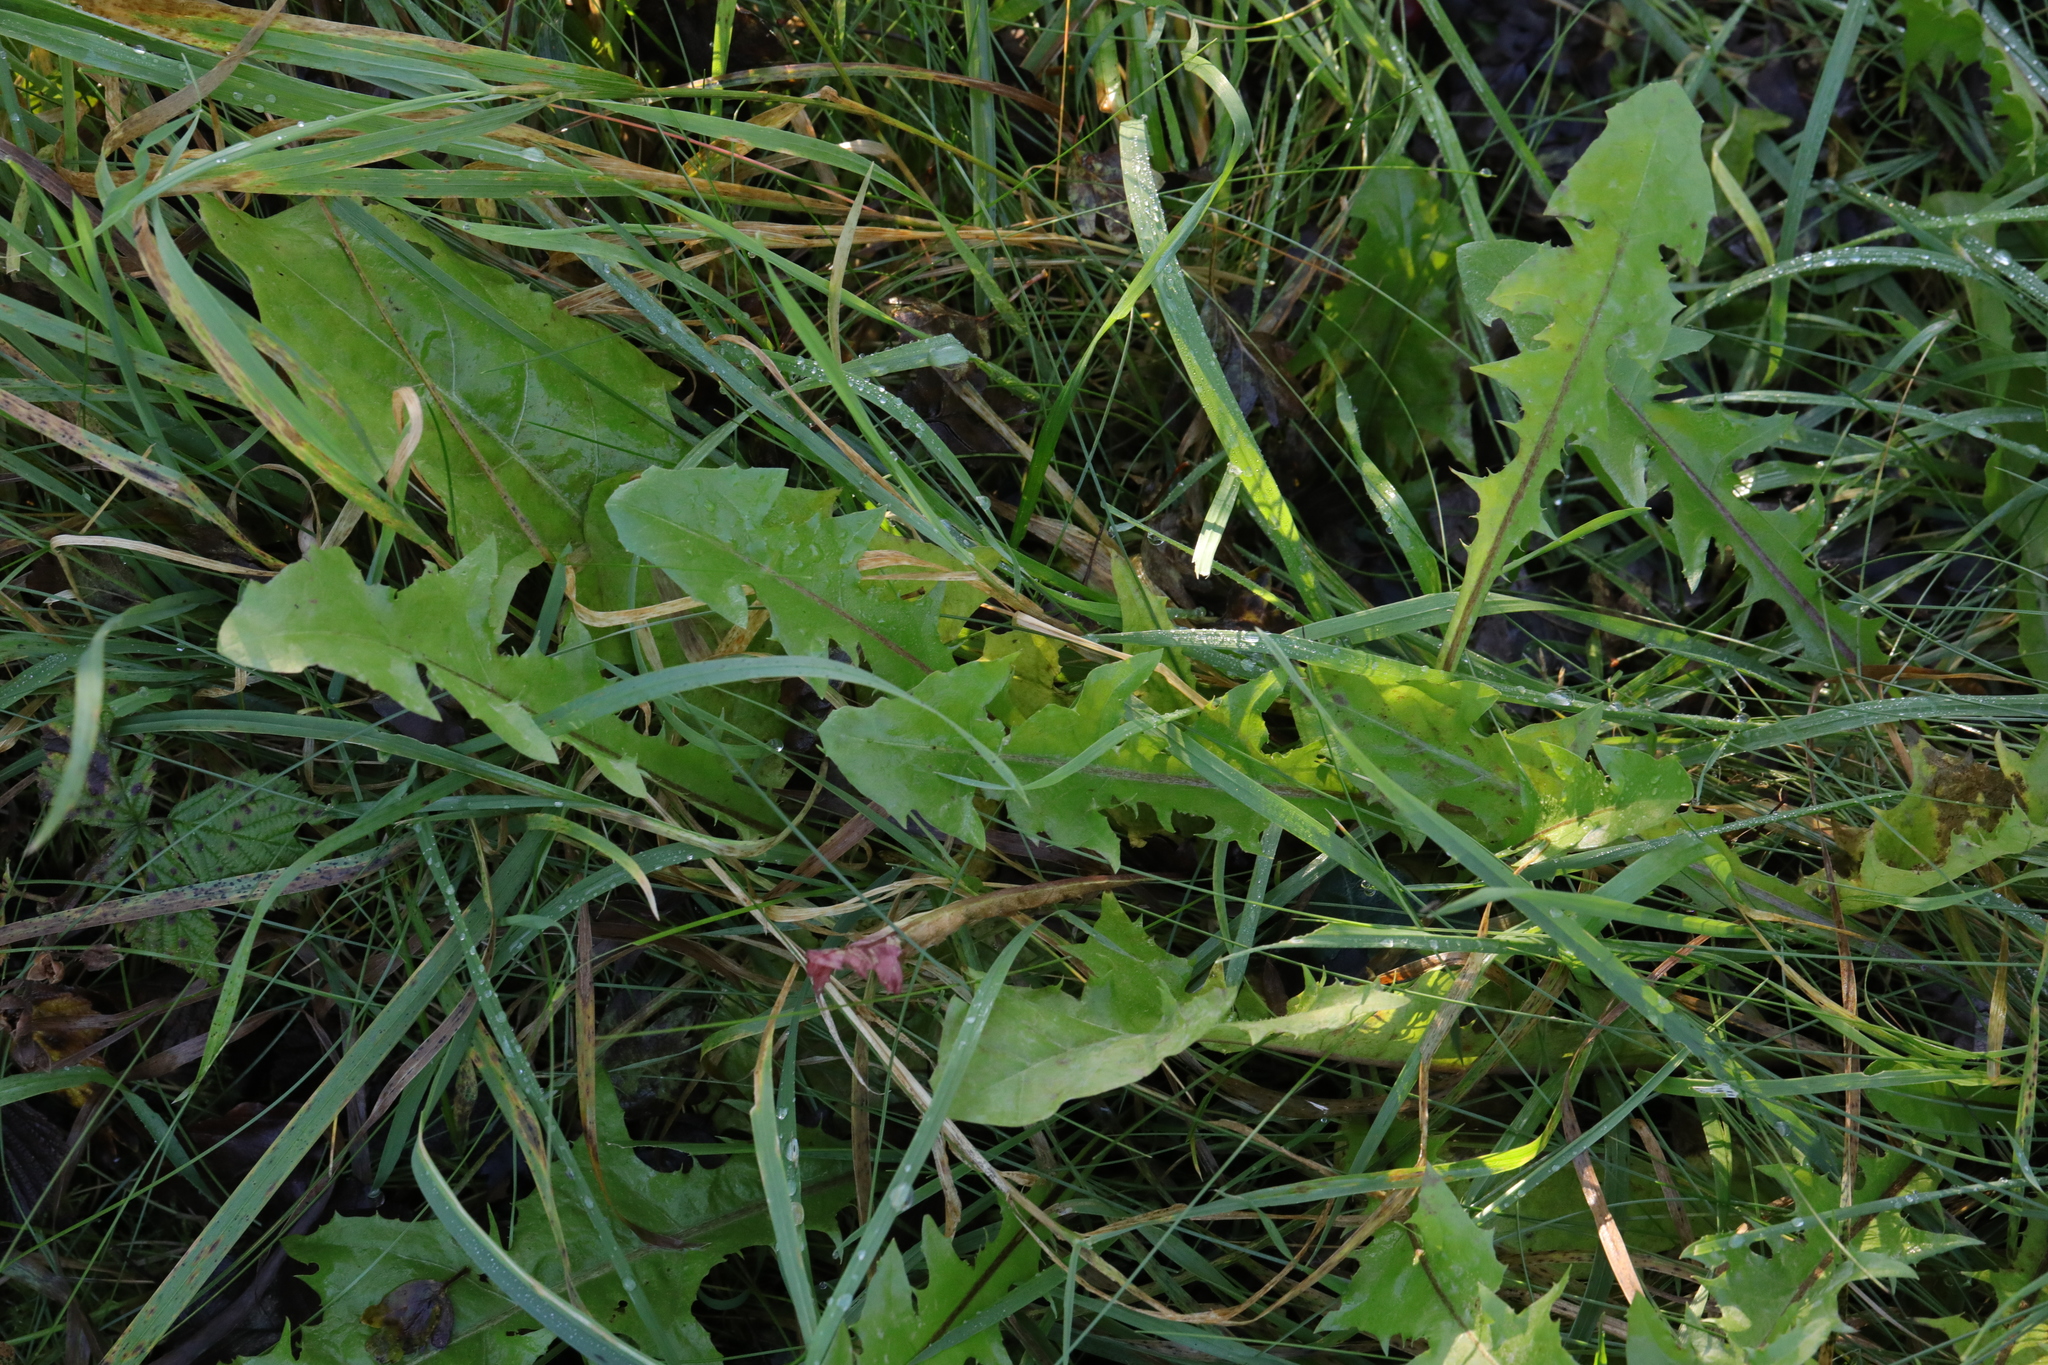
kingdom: Plantae
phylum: Tracheophyta
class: Magnoliopsida
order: Asterales
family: Asteraceae
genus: Taraxacum
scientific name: Taraxacum officinale
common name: Common dandelion
